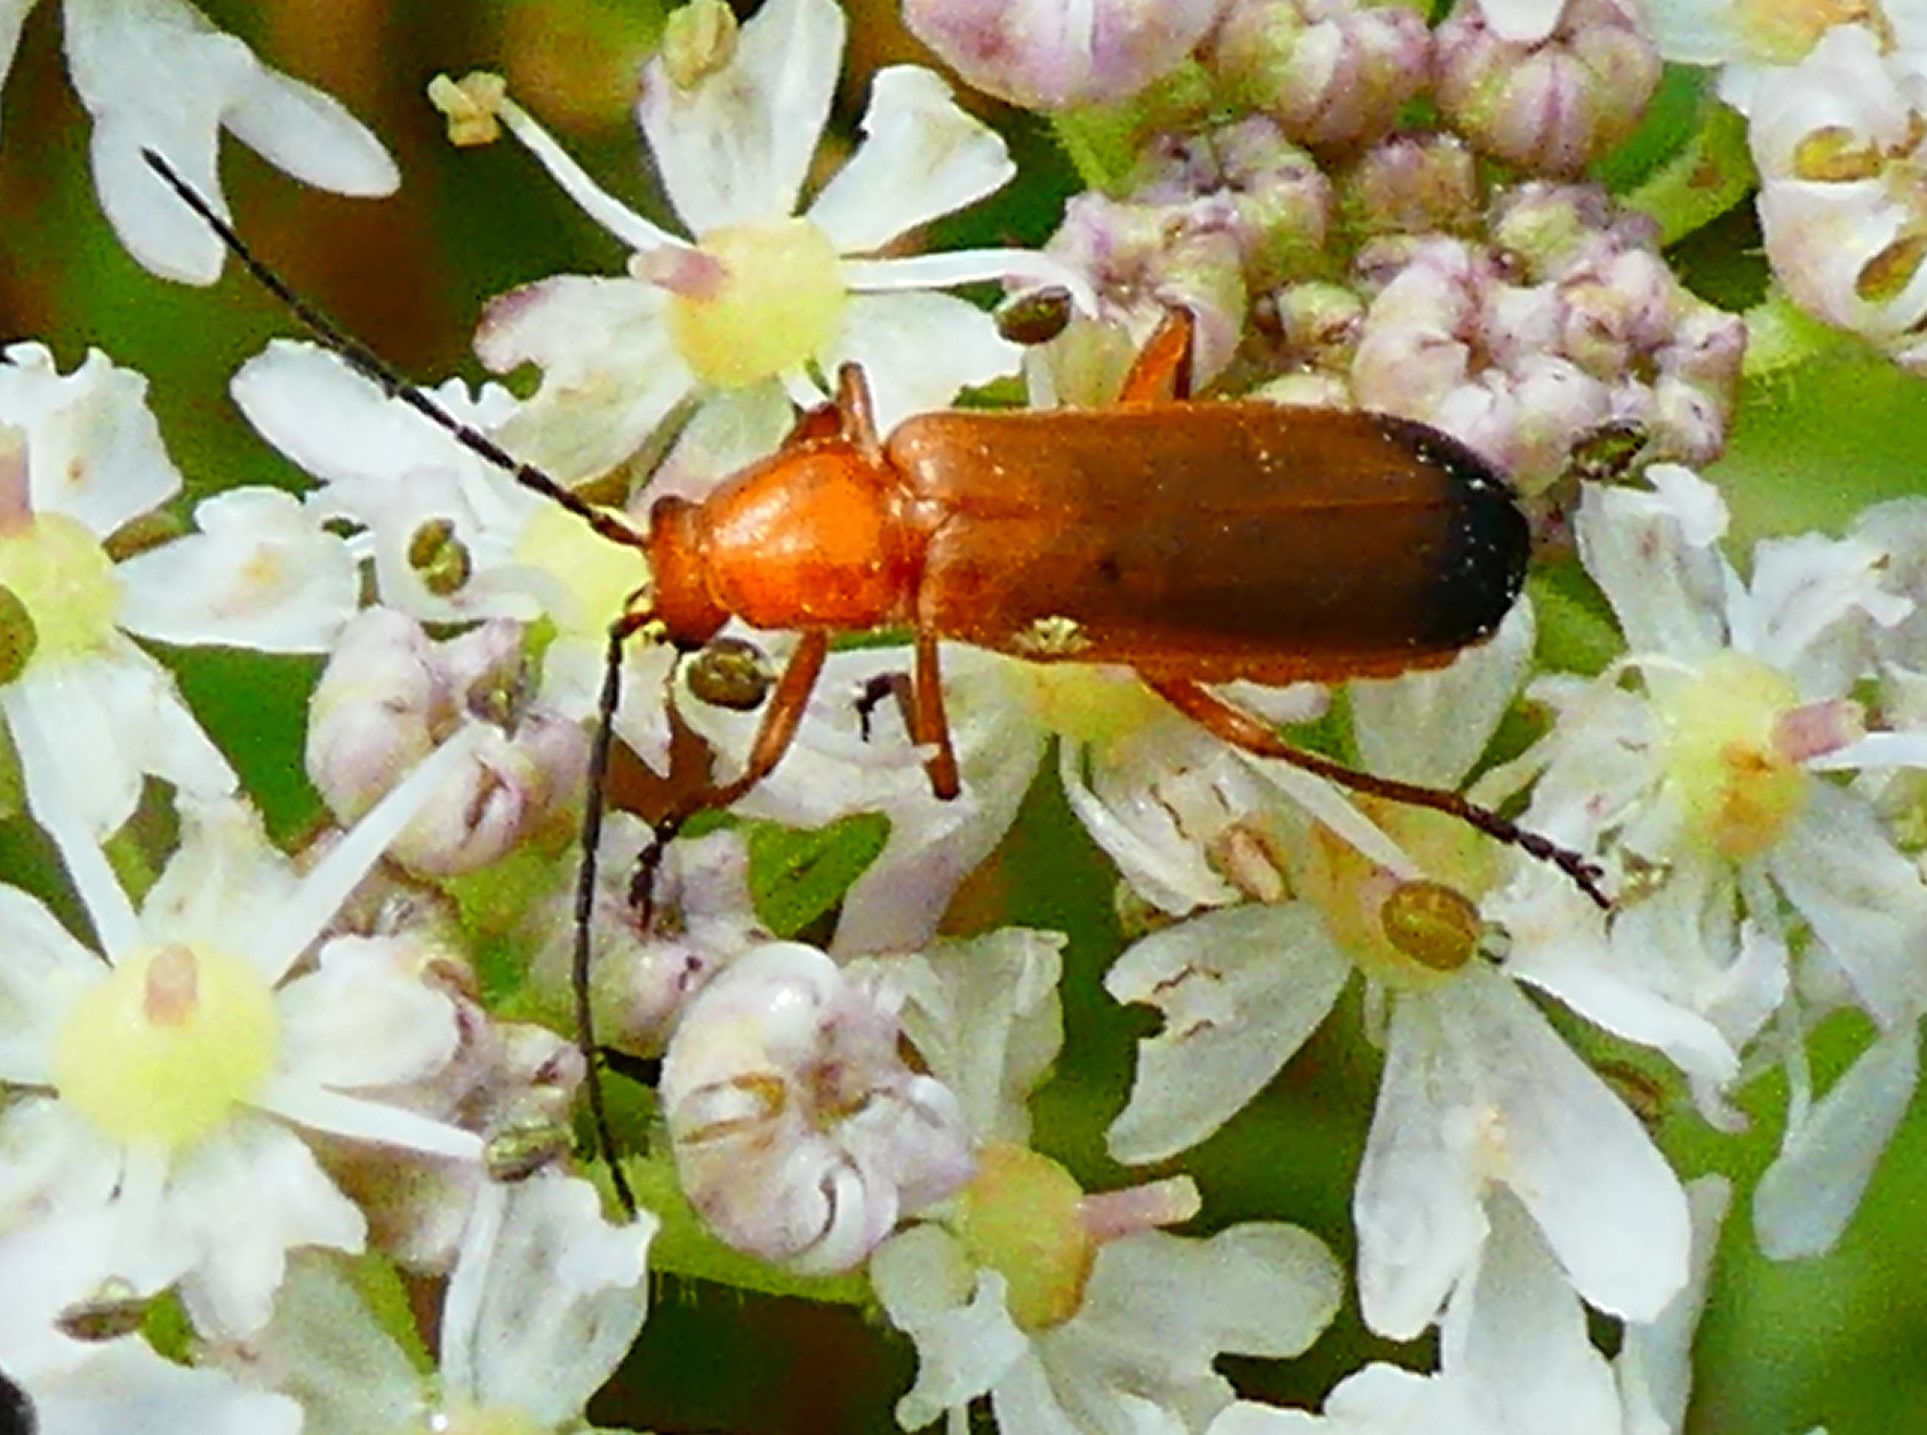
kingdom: Animalia
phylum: Arthropoda
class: Insecta
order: Coleoptera
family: Cantharidae
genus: Rhagonycha
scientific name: Rhagonycha fulva
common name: Common red soldier beetle
